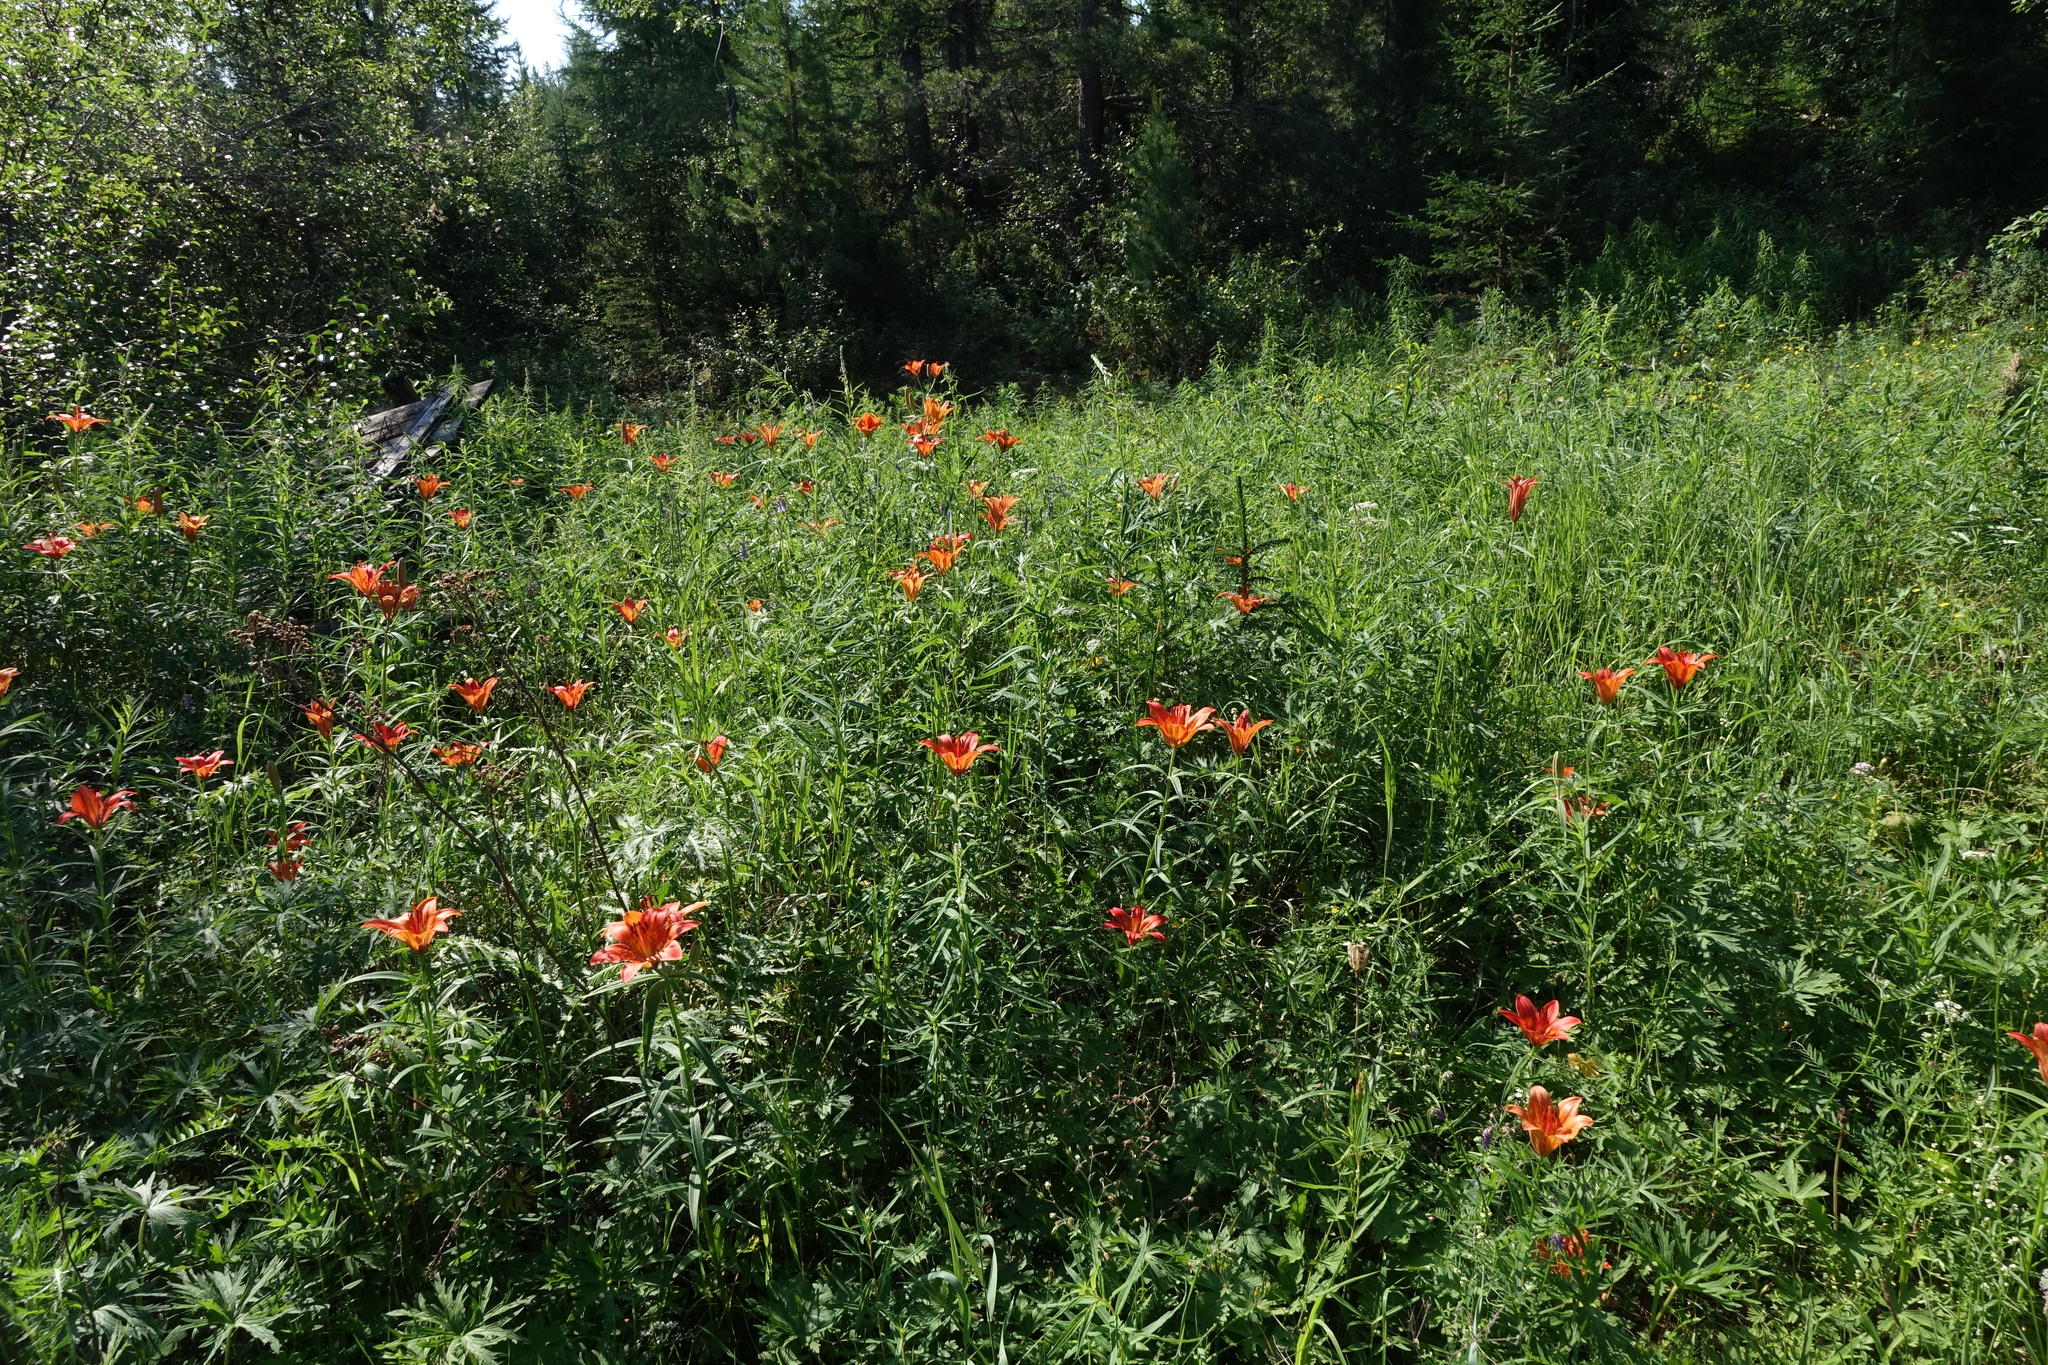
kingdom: Plantae
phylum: Tracheophyta
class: Liliopsida
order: Liliales
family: Liliaceae
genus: Lilium
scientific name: Lilium pensylvanicum
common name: Candlestick lily
